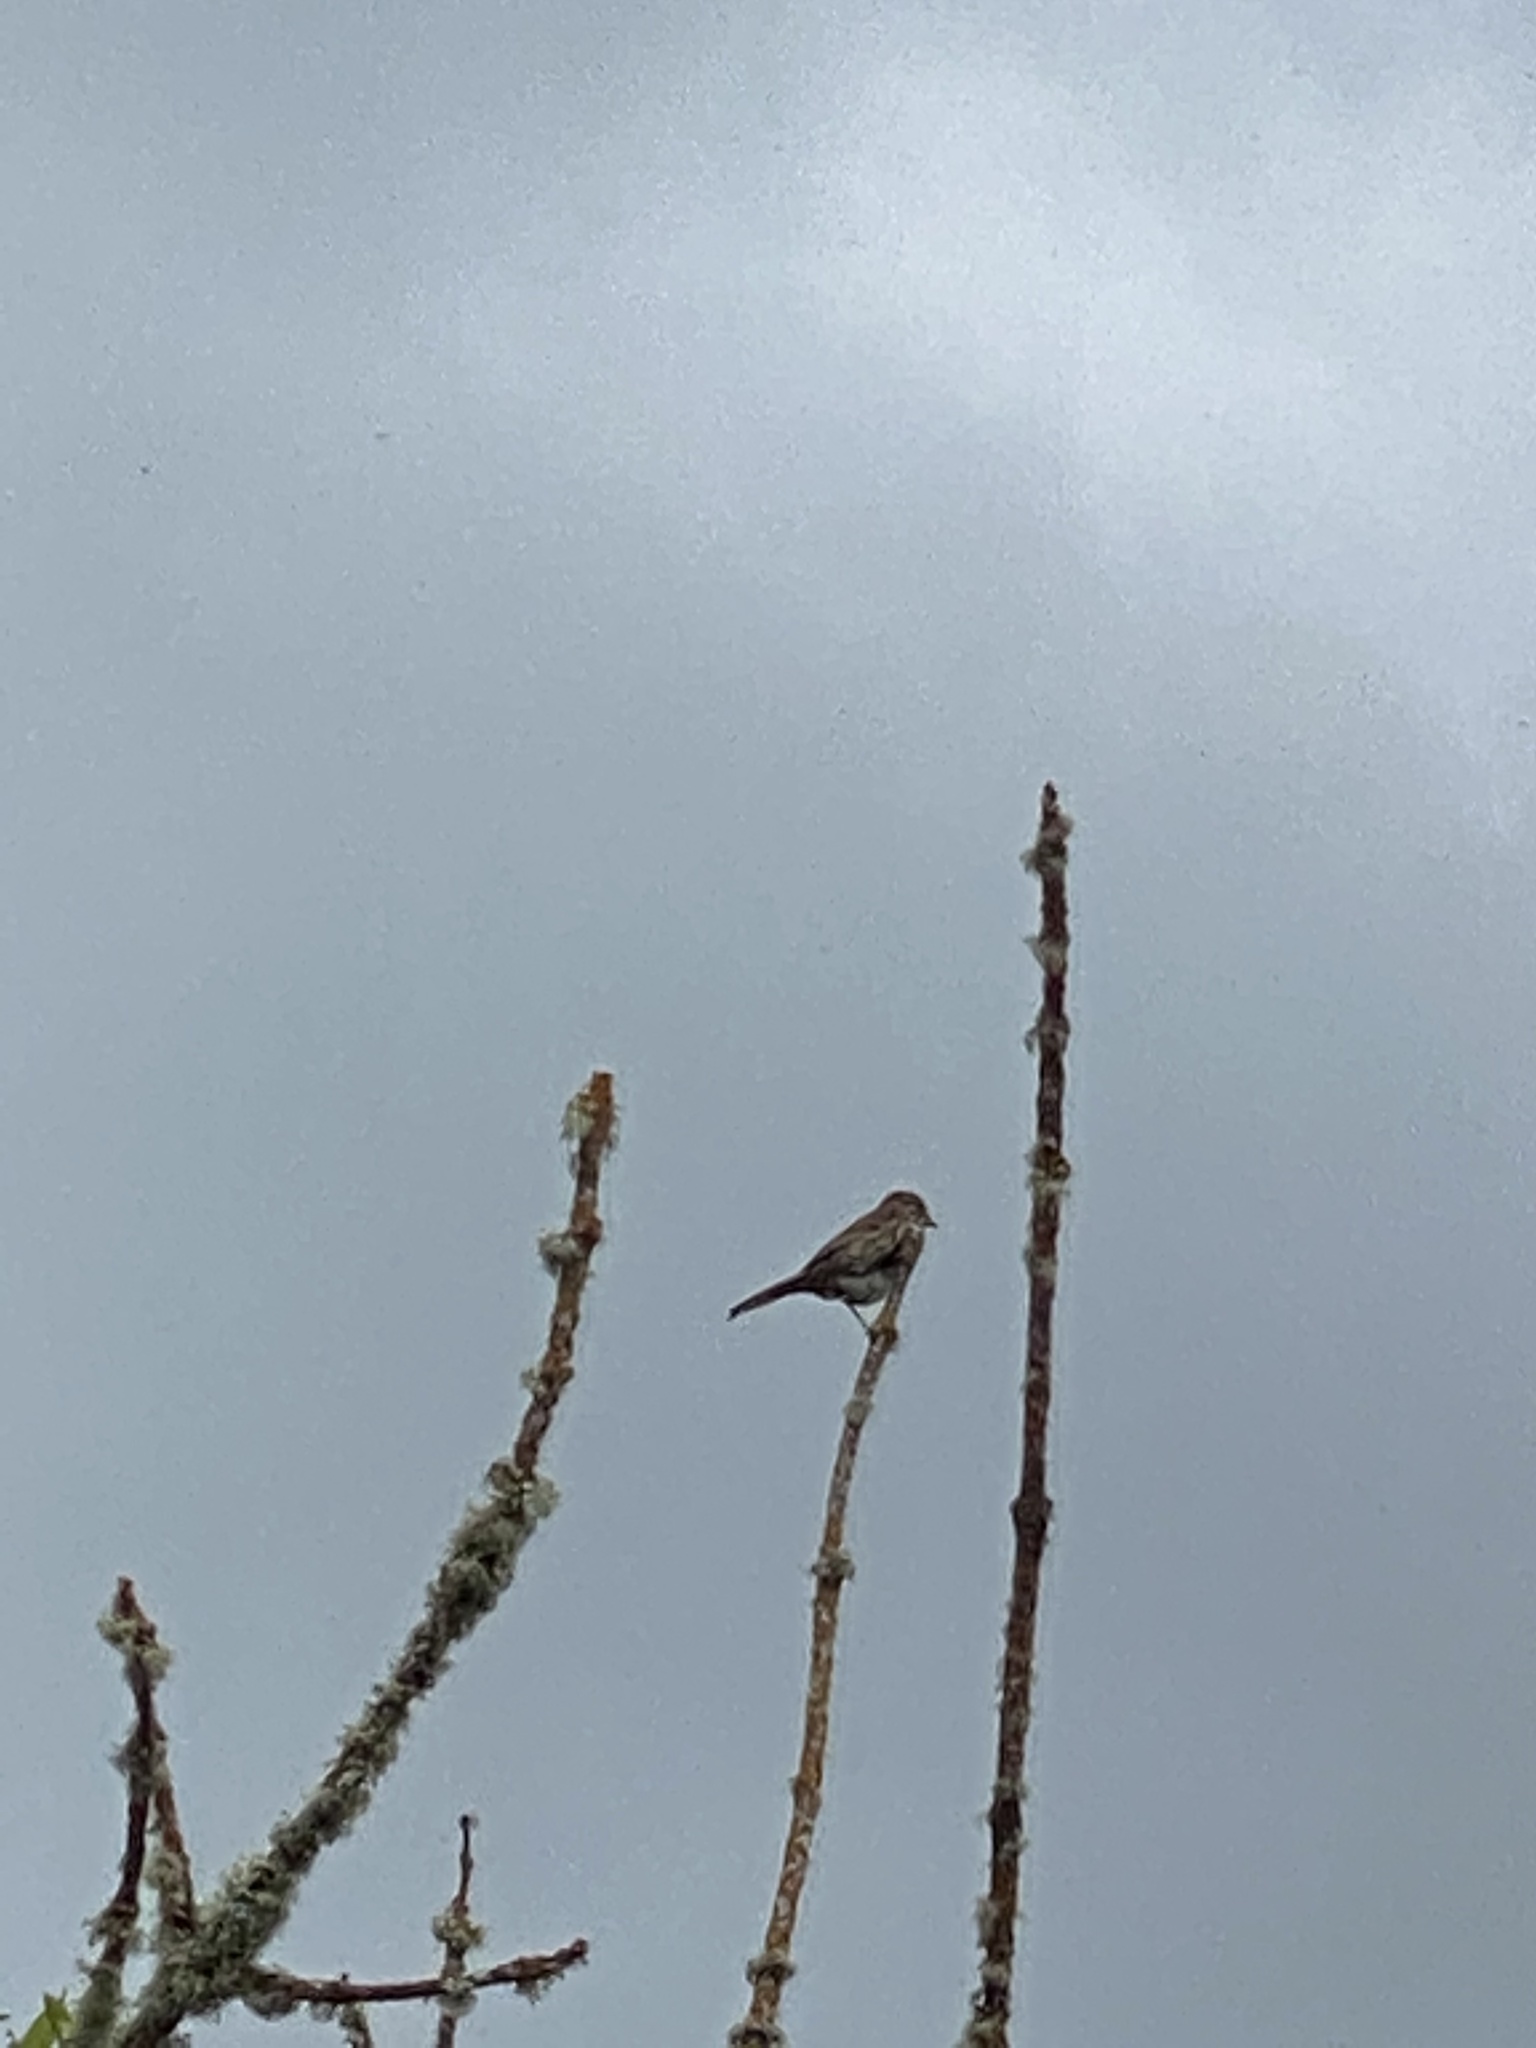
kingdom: Animalia
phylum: Chordata
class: Aves
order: Passeriformes
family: Fringillidae
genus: Haemorhous
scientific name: Haemorhous mexicanus
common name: House finch
